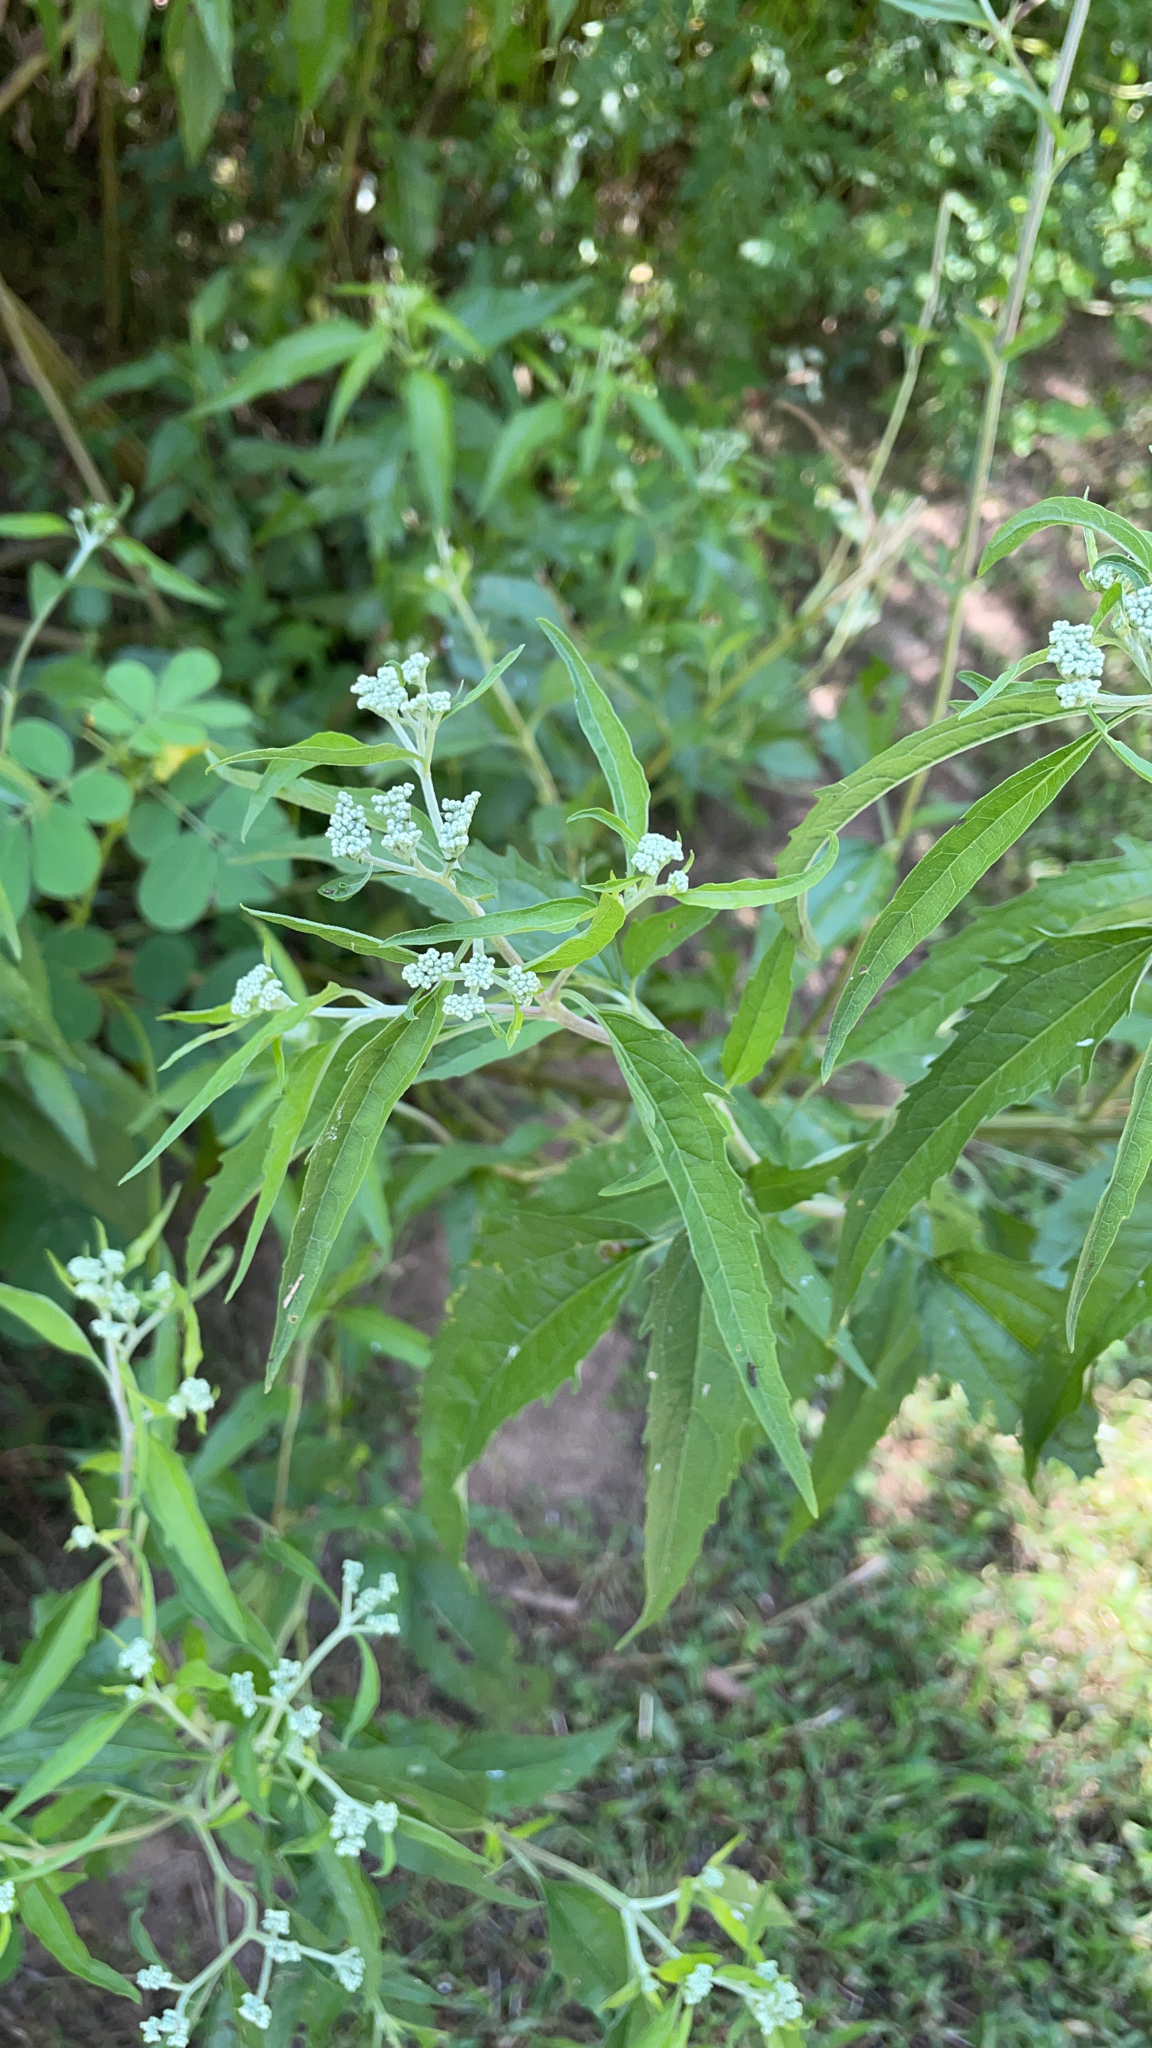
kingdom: Plantae
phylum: Tracheophyta
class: Magnoliopsida
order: Asterales
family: Asteraceae
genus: Eupatorium
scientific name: Eupatorium serotinum
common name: Late boneset
